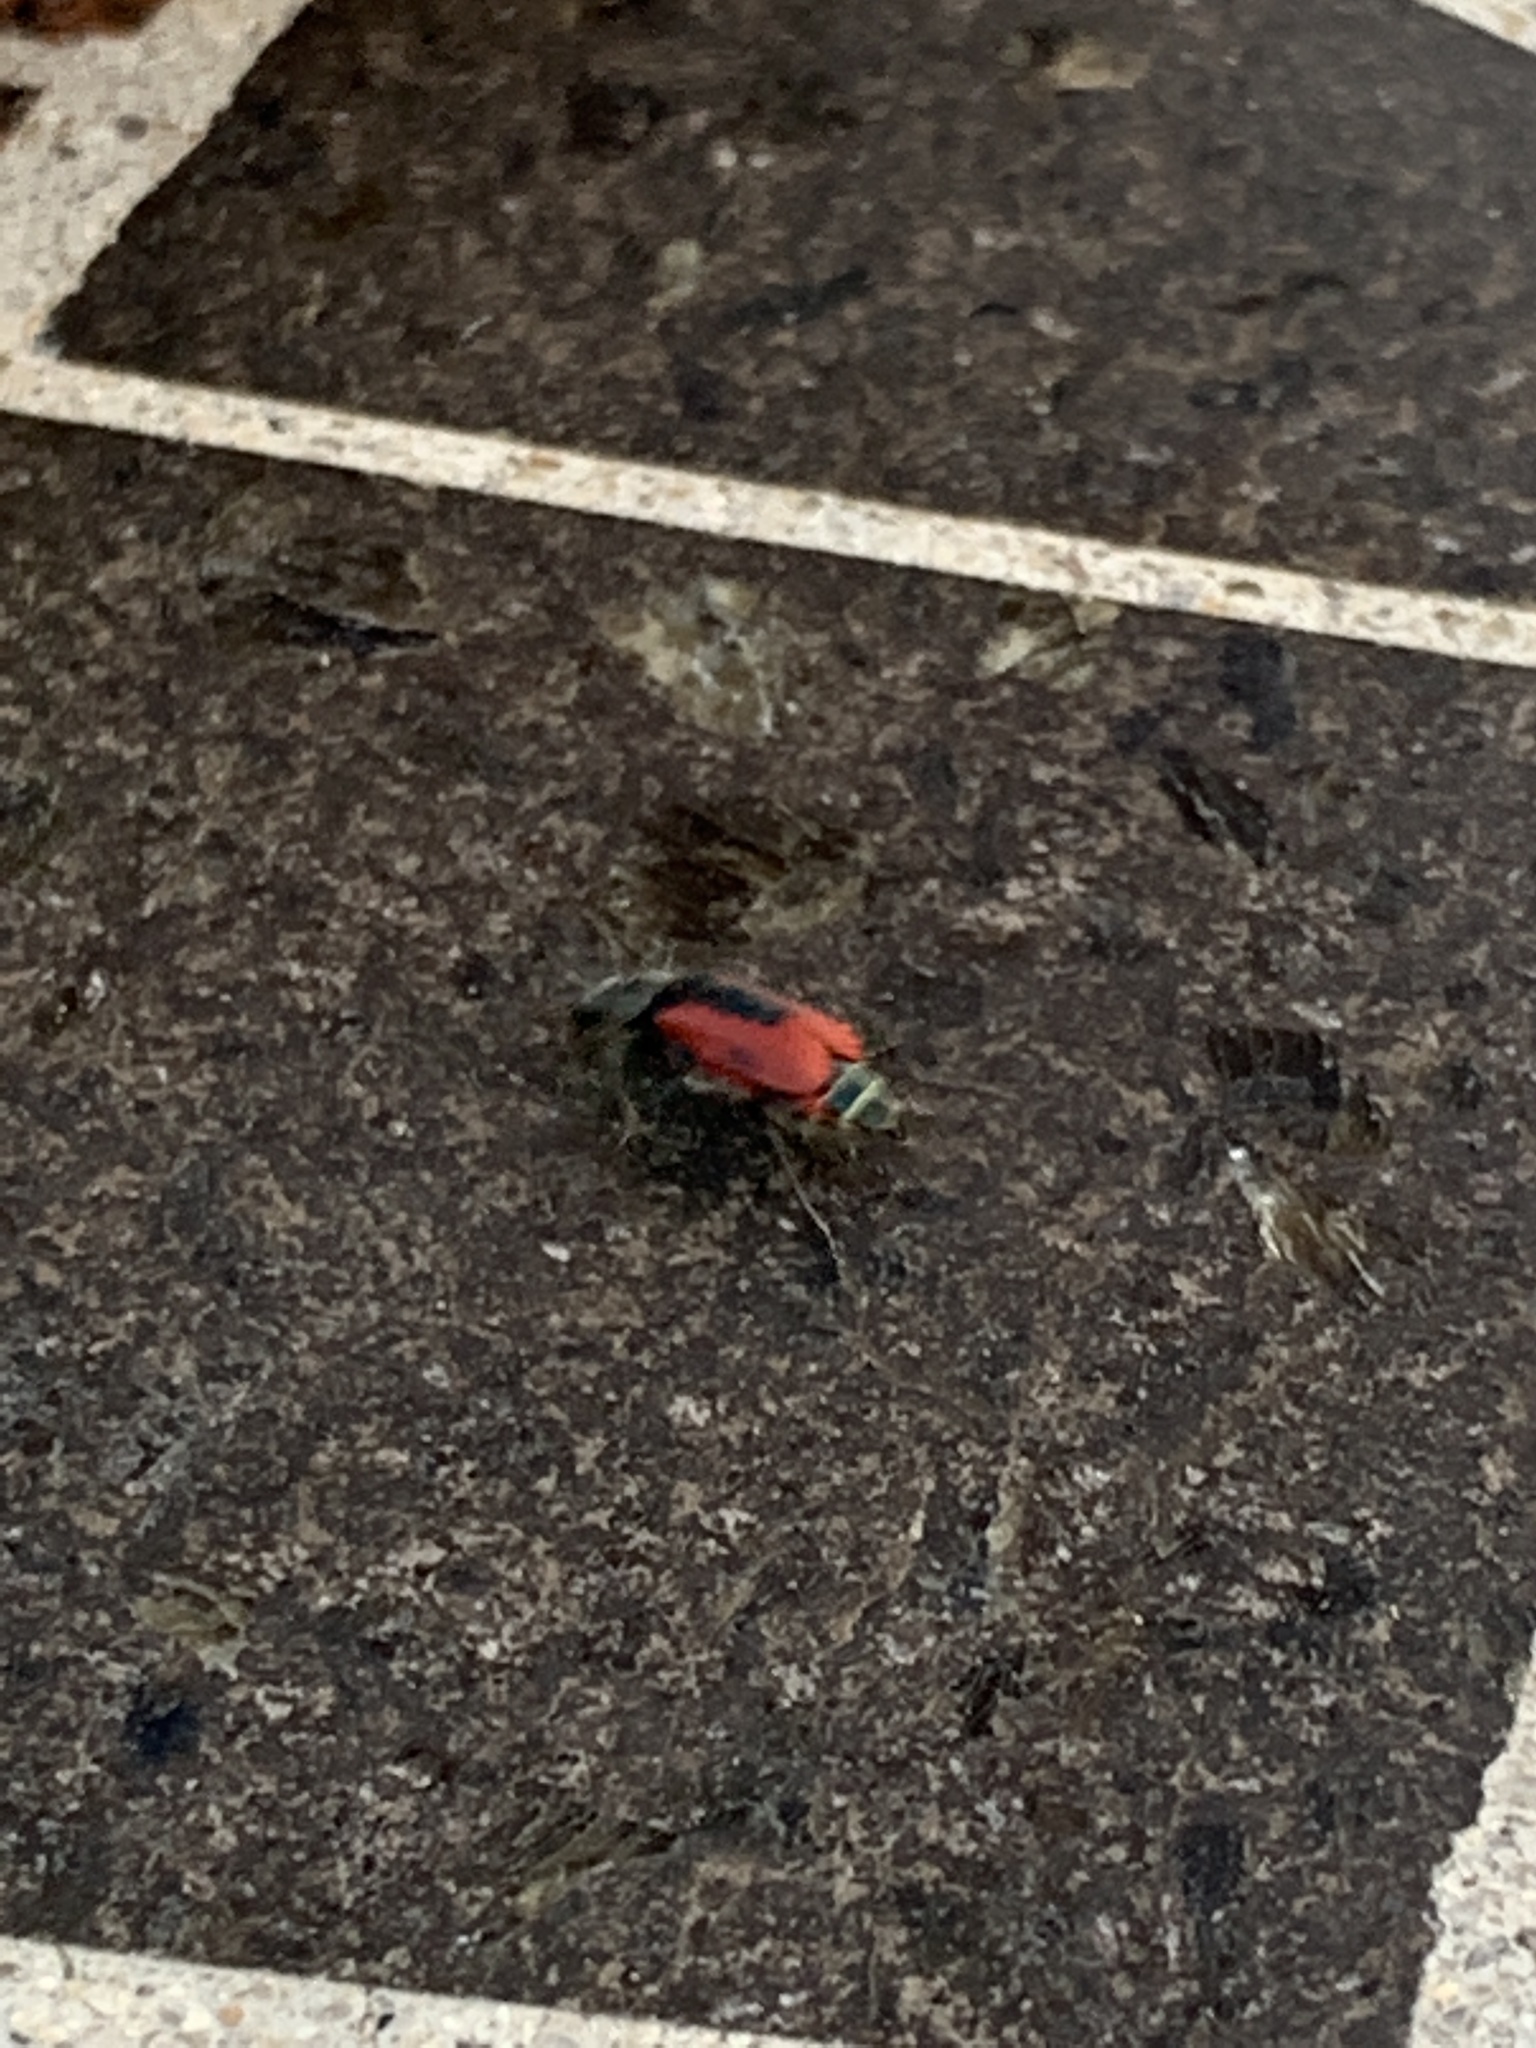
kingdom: Animalia
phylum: Arthropoda
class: Insecta
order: Coleoptera
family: Melyridae
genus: Malachius
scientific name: Malachius aeneus
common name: Scarlet malachite beetle
